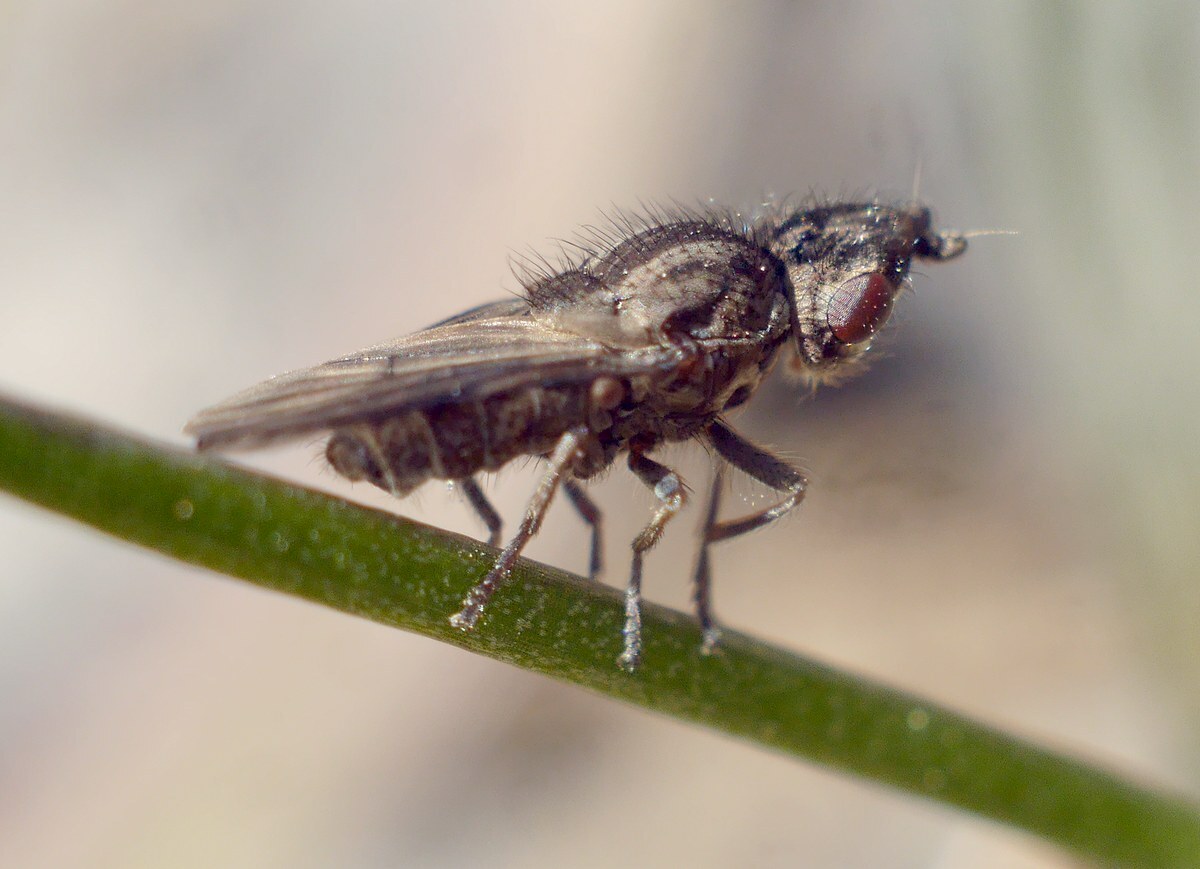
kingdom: Animalia
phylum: Arthropoda
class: Insecta
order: Diptera
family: Chloropidae
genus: Trichieurina
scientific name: Trichieurina pubescens
